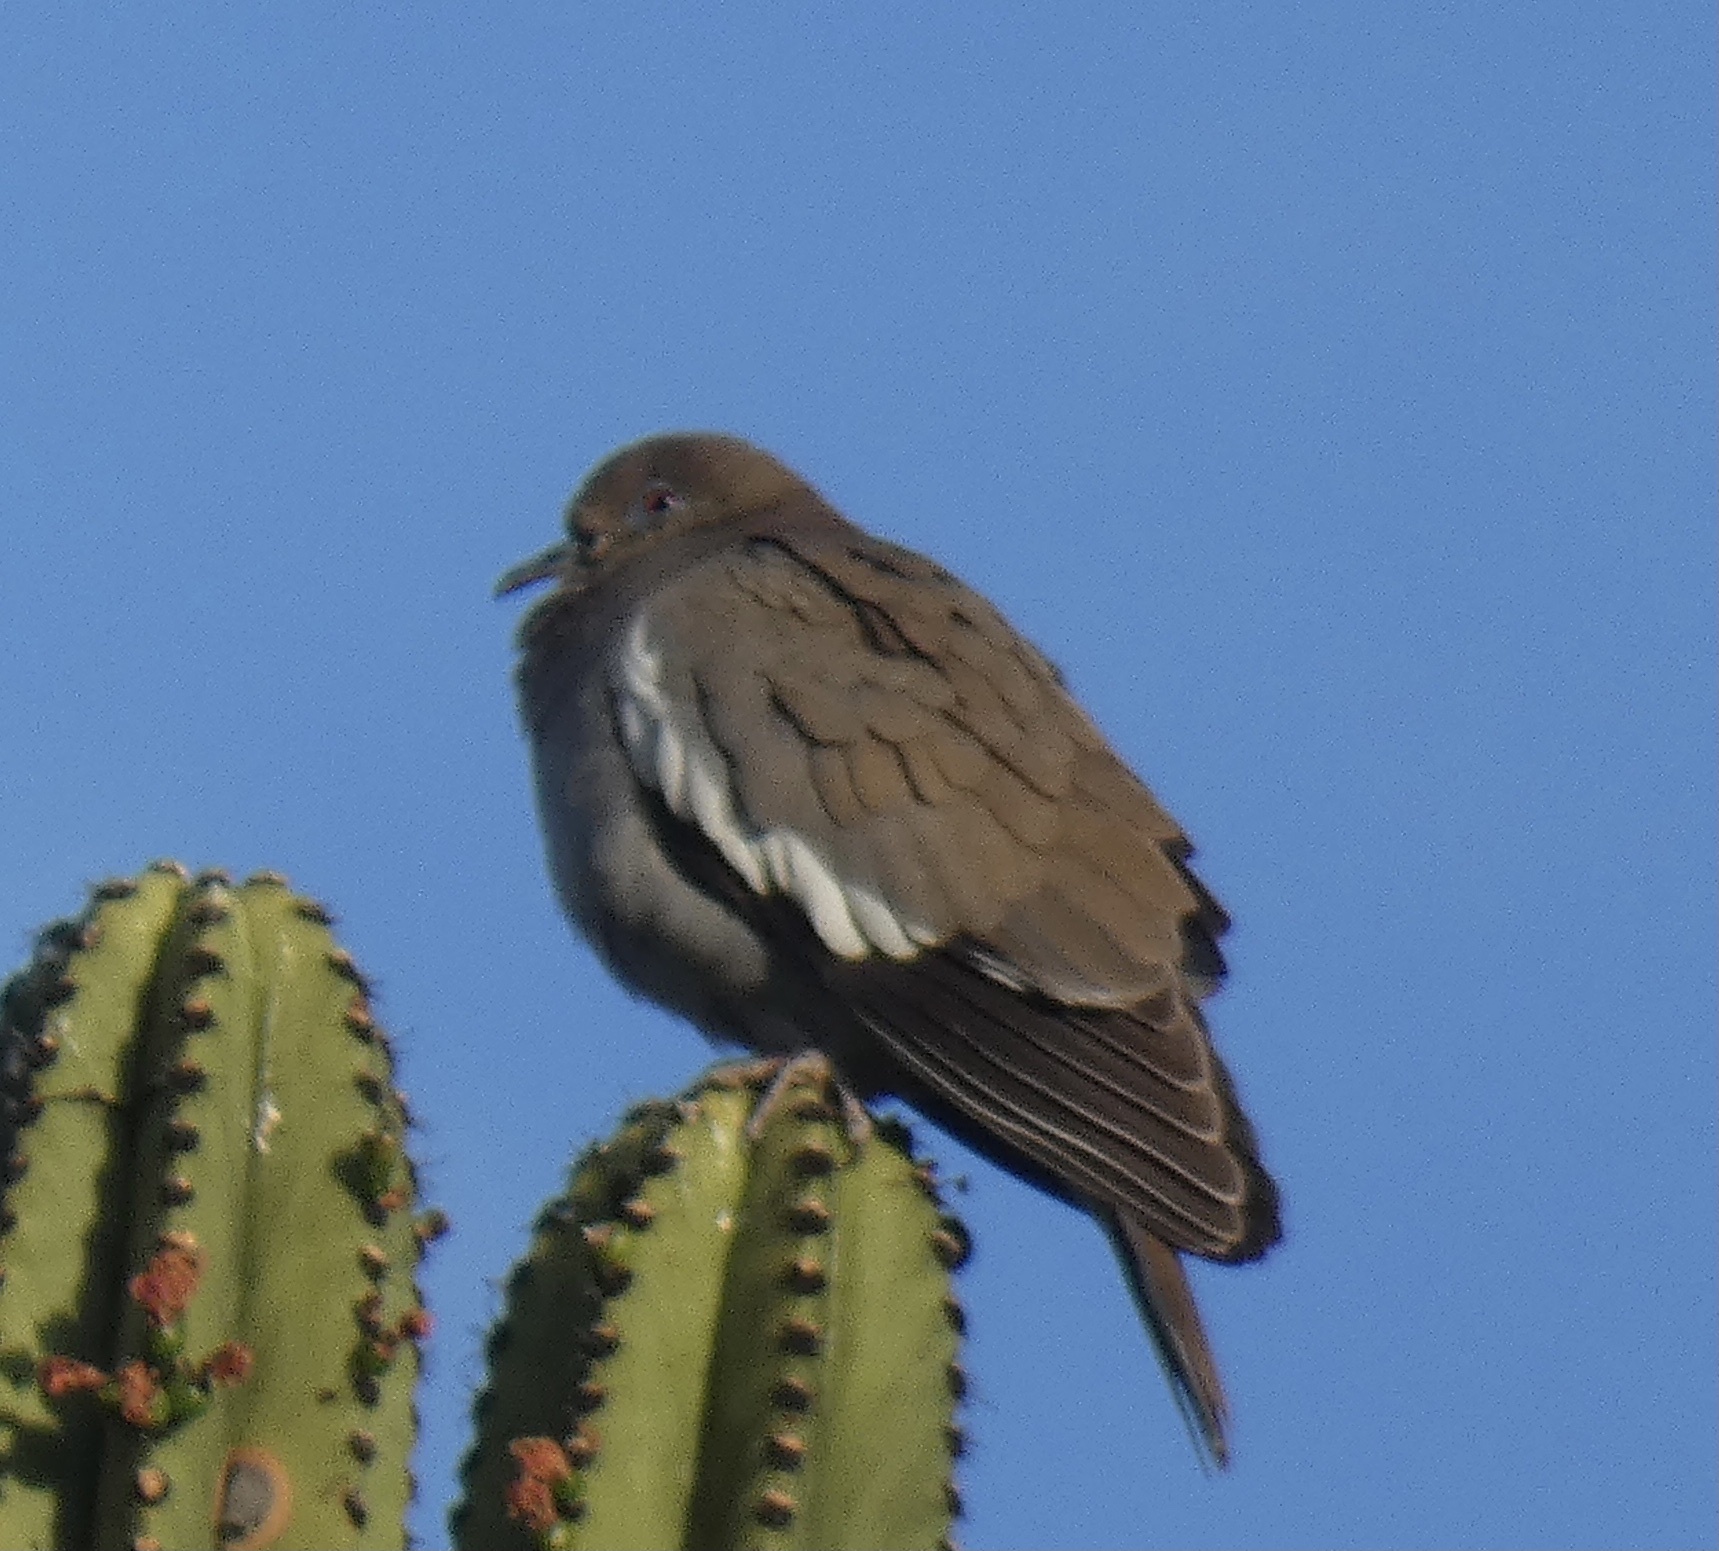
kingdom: Animalia
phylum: Chordata
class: Aves
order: Columbiformes
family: Columbidae
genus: Zenaida
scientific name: Zenaida asiatica
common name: White-winged dove
